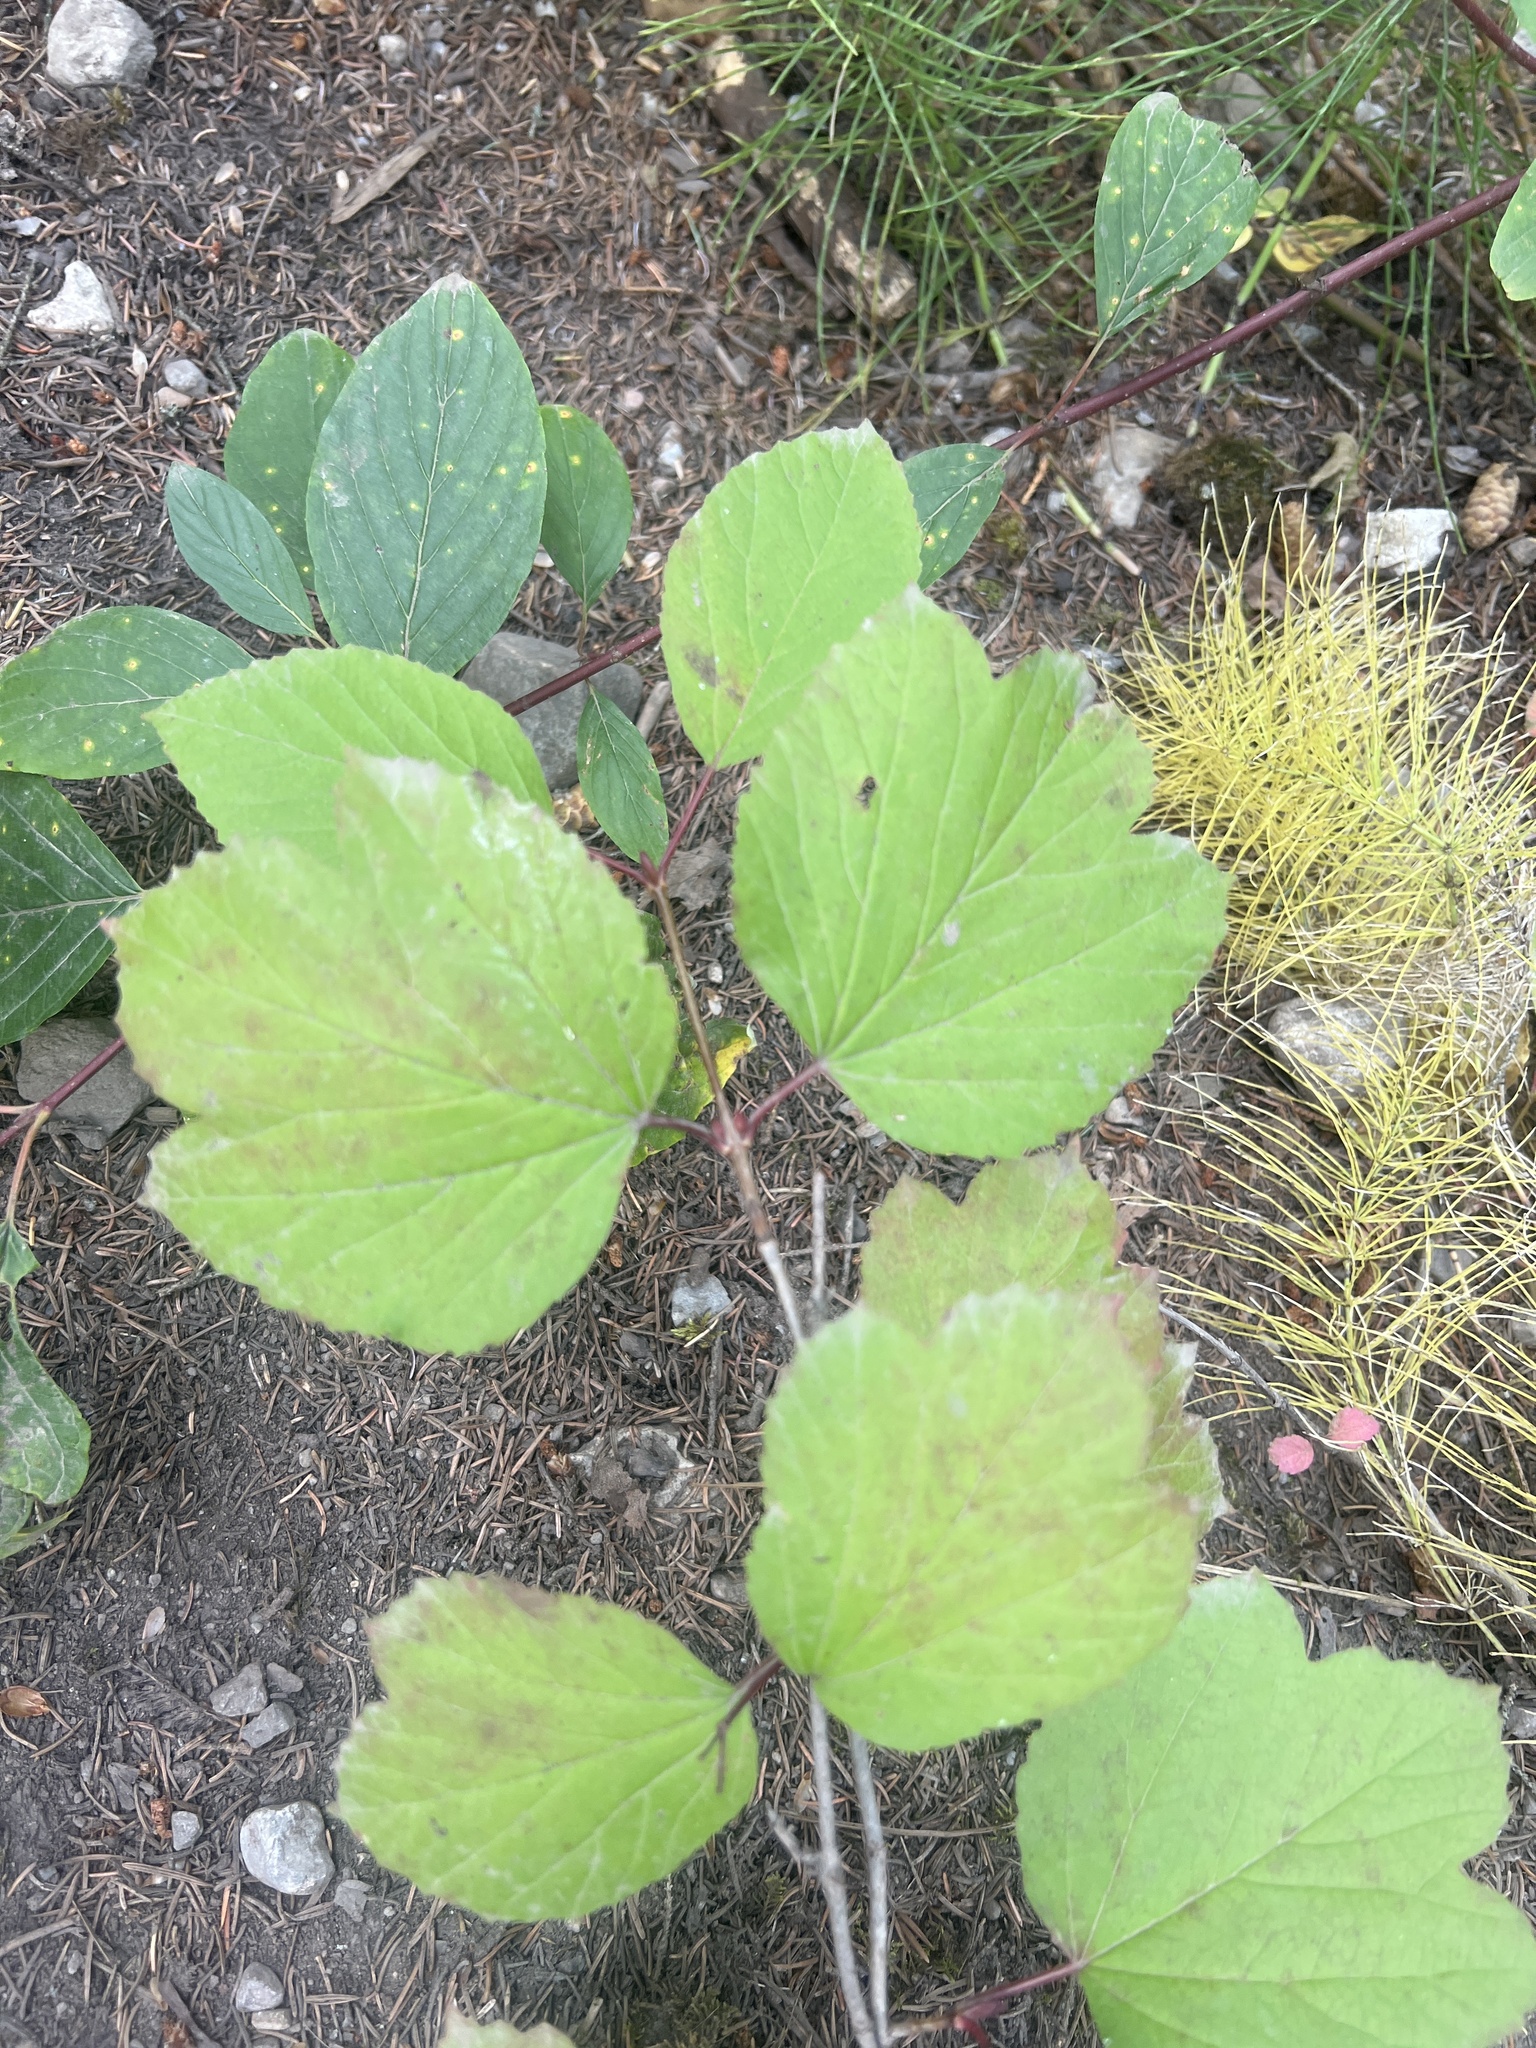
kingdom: Plantae
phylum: Tracheophyta
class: Magnoliopsida
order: Dipsacales
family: Viburnaceae
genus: Viburnum
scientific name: Viburnum edule
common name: Mooseberry
